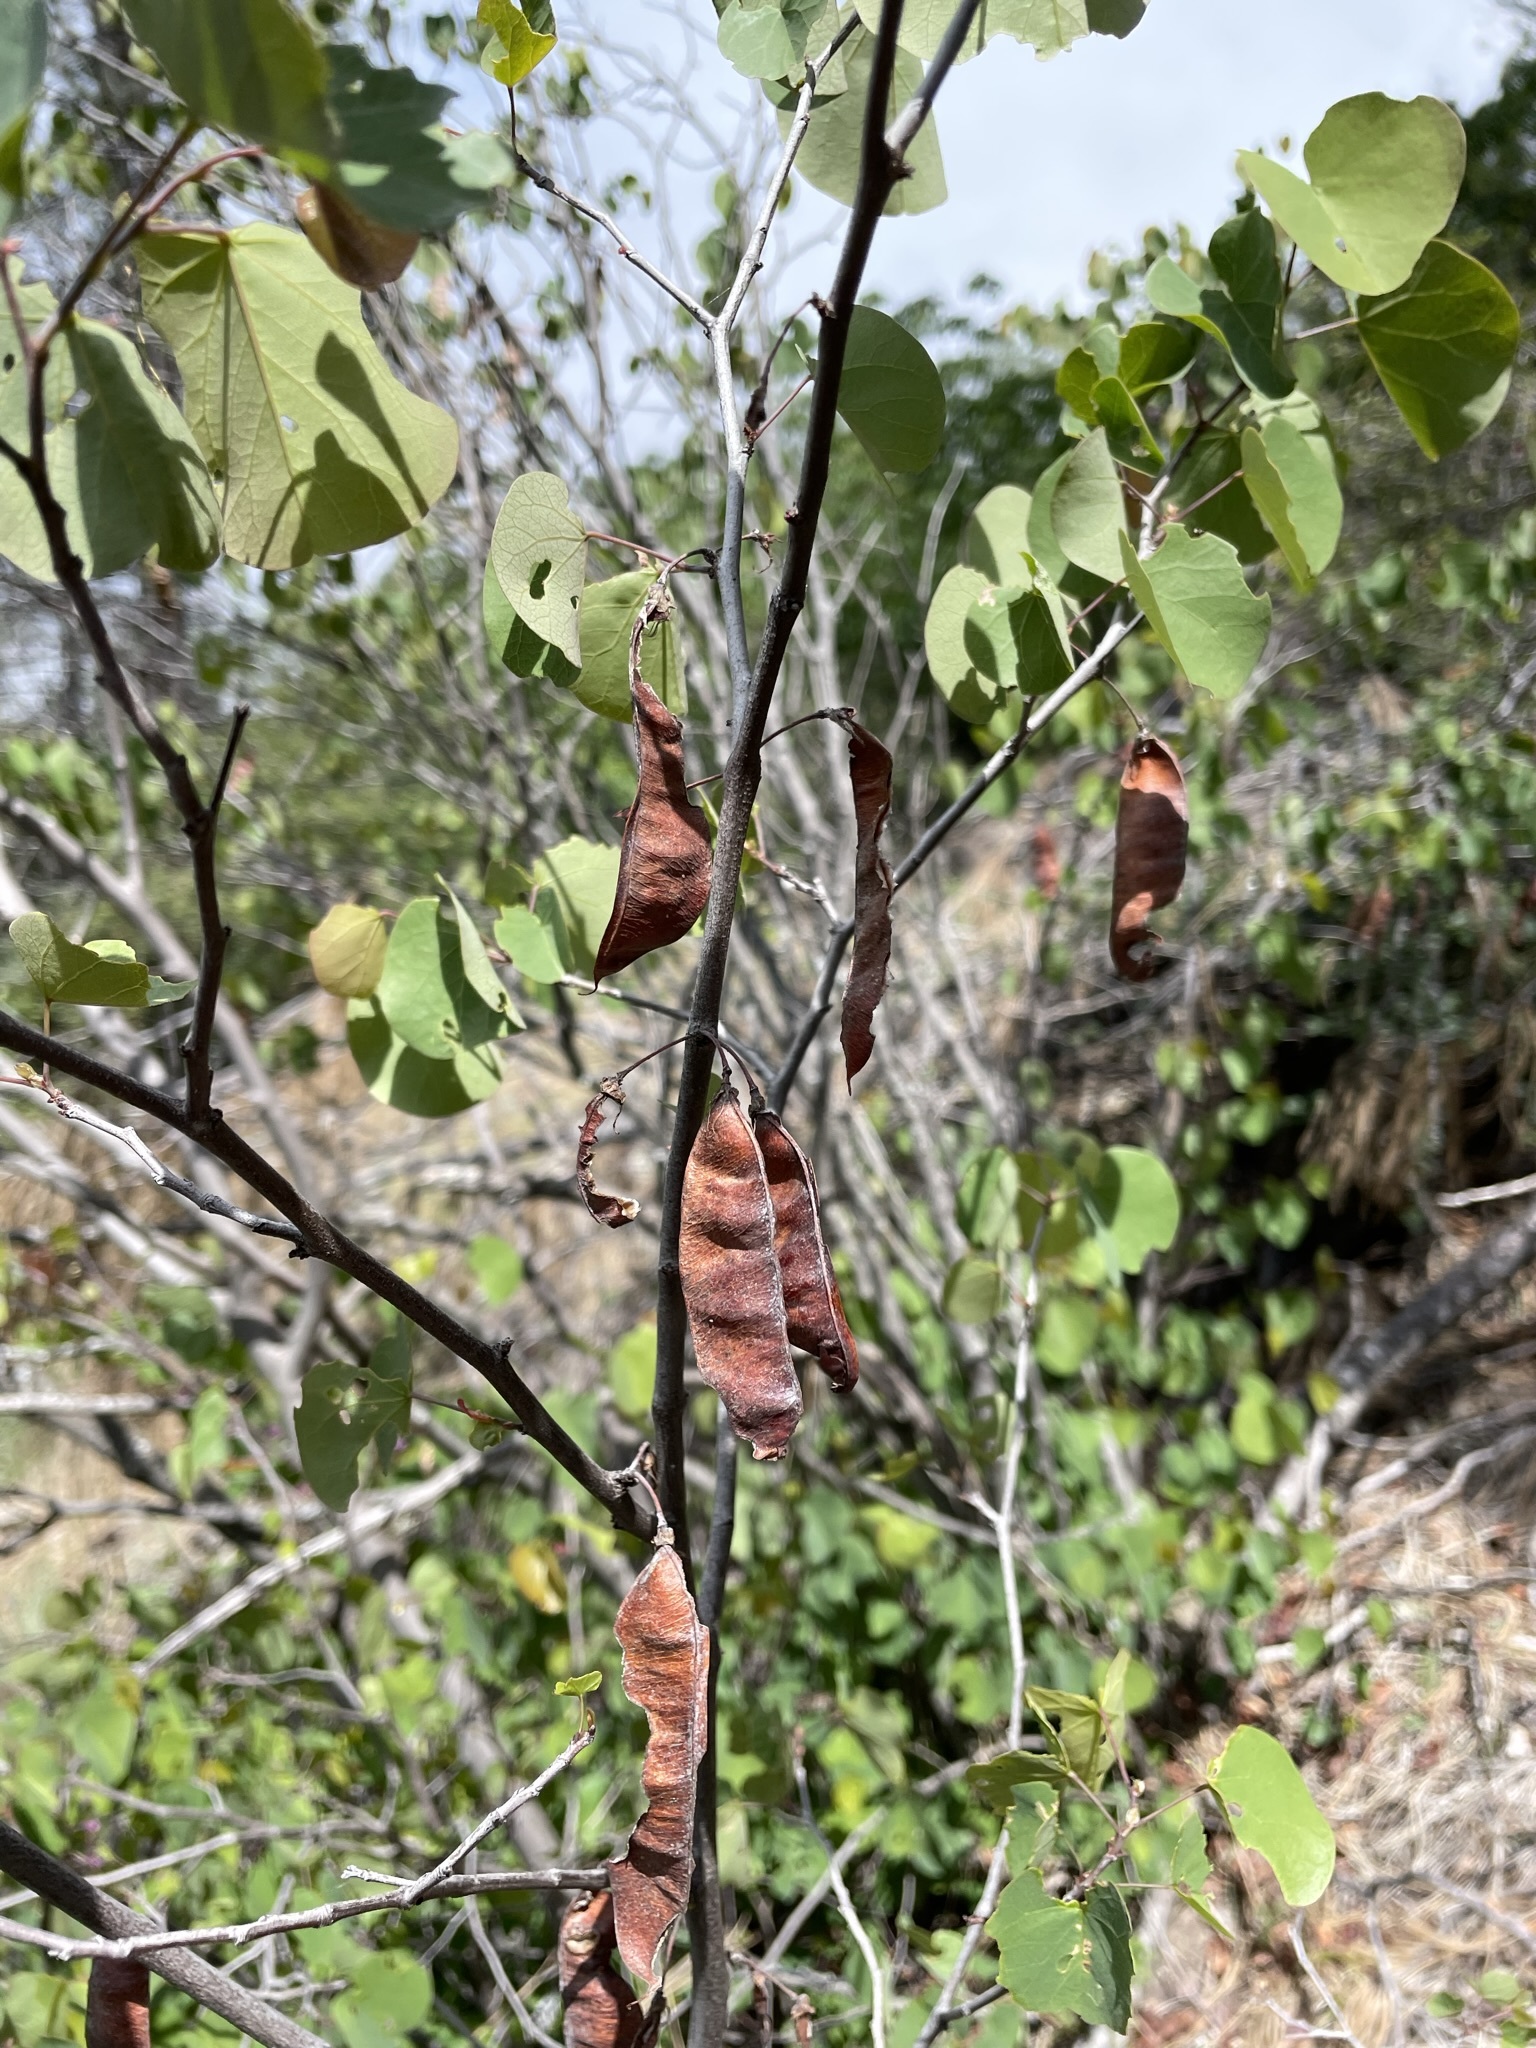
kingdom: Plantae
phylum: Tracheophyta
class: Magnoliopsida
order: Fabales
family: Fabaceae
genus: Cercis
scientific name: Cercis occidentalis
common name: California redbud
